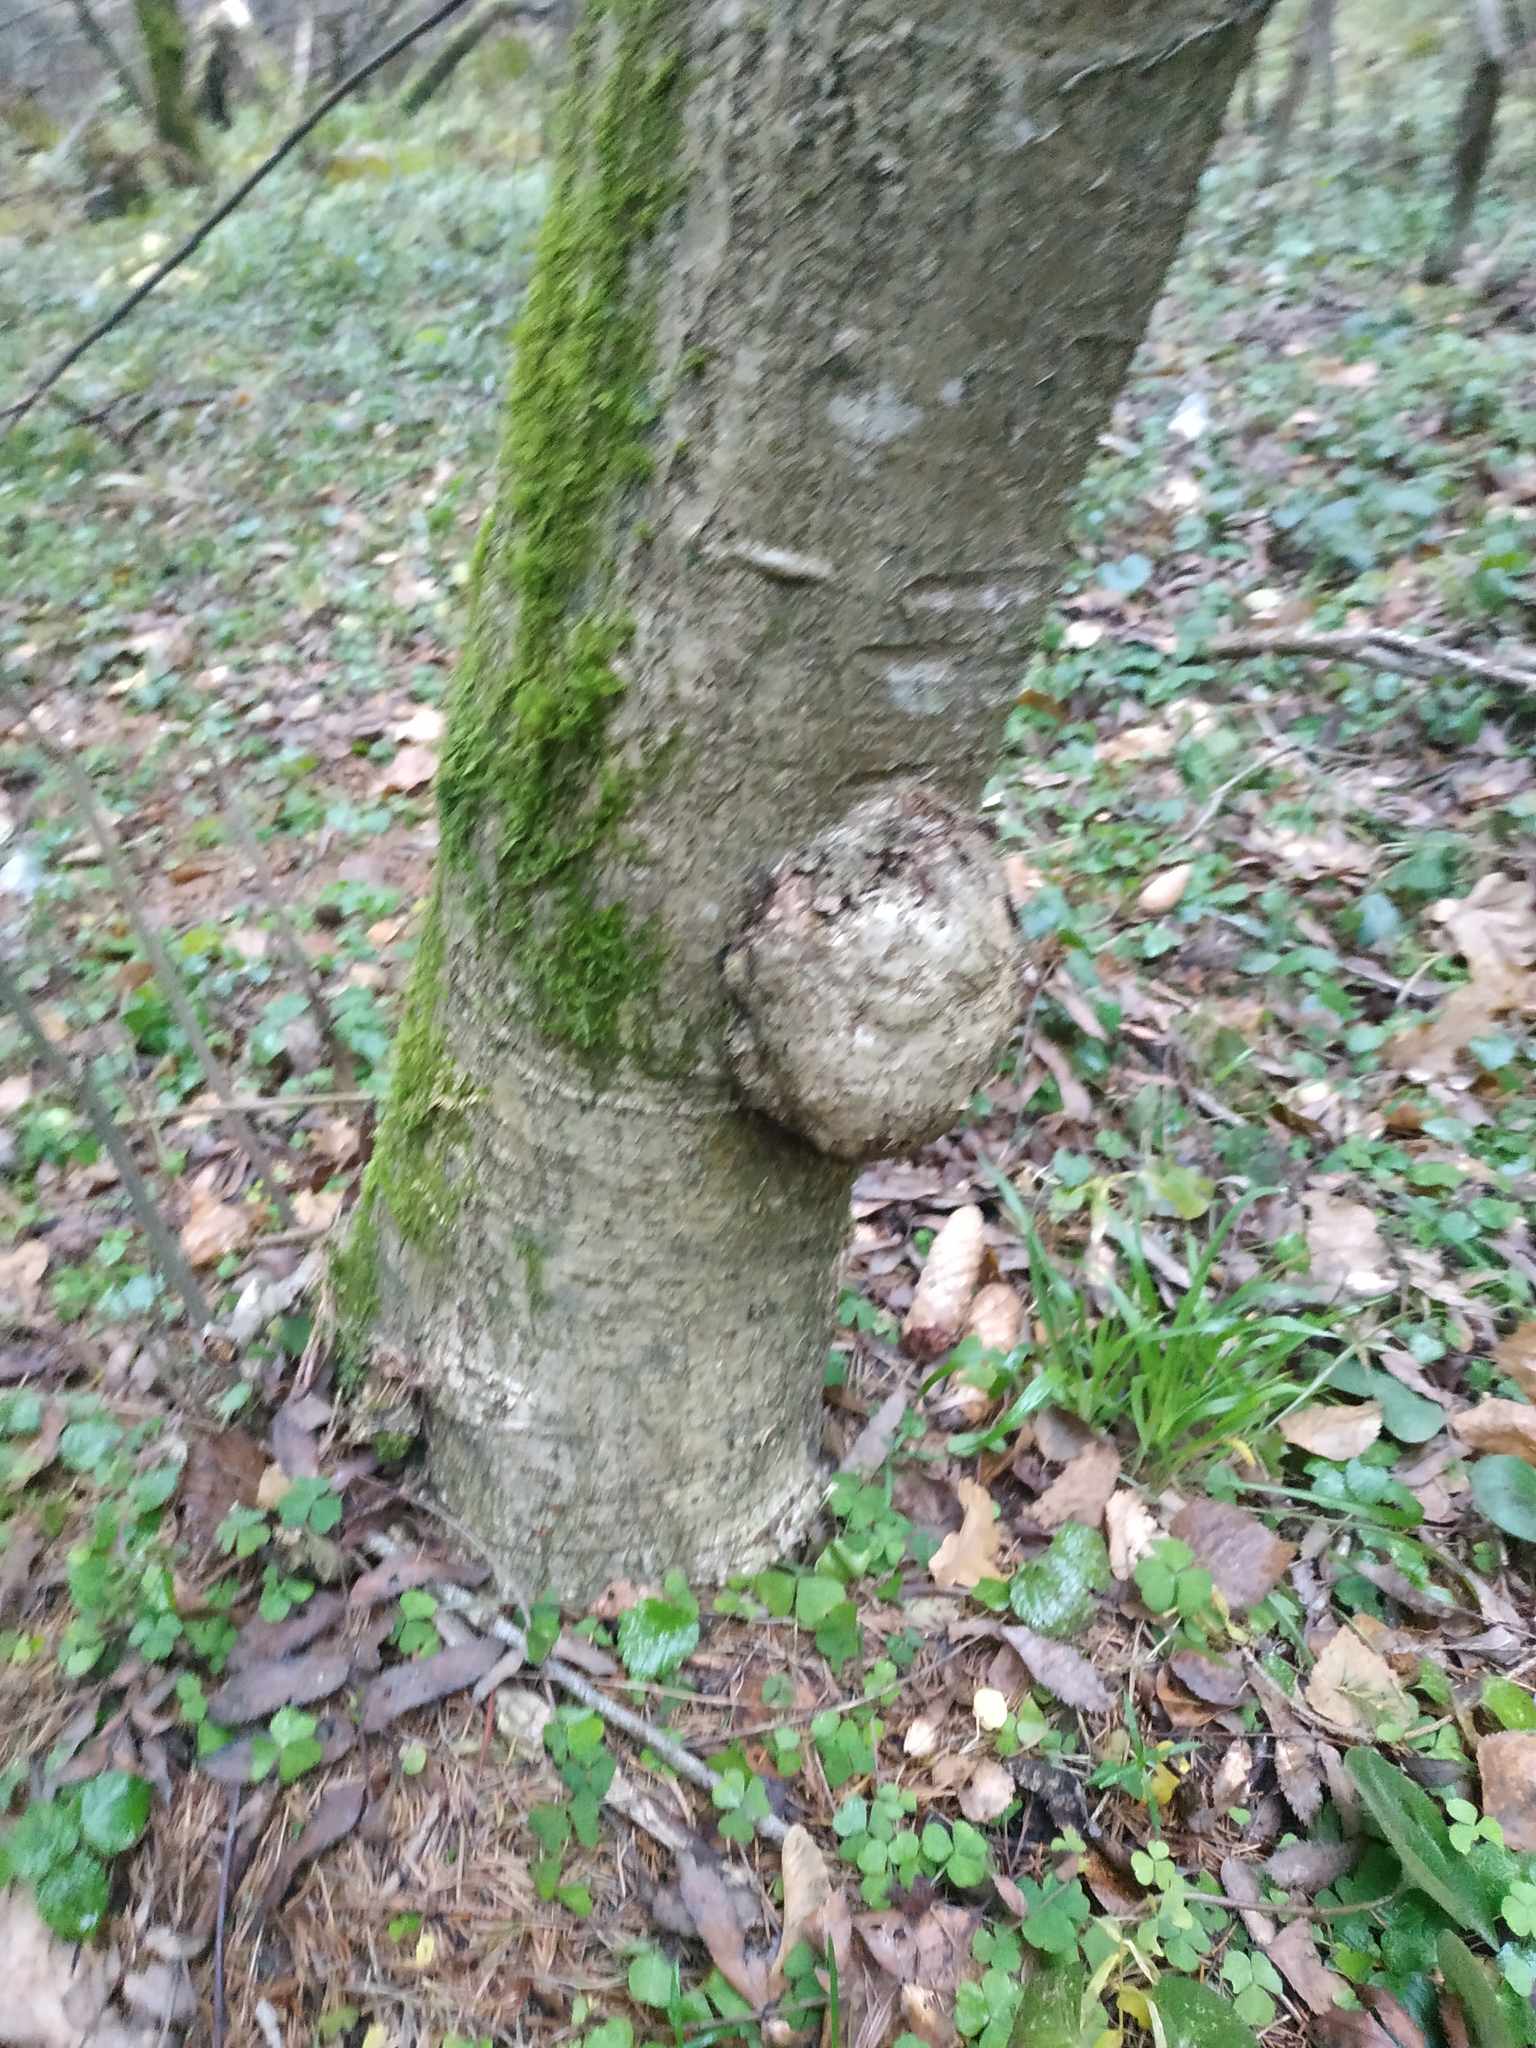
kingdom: Bacteria
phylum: Proteobacteria
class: Alphaproteobacteria
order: Rhizobiales
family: Rhizobiaceae
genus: Rhizobium
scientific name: Rhizobium Agrobacterium radiobacter
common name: Bacterial crown gall
